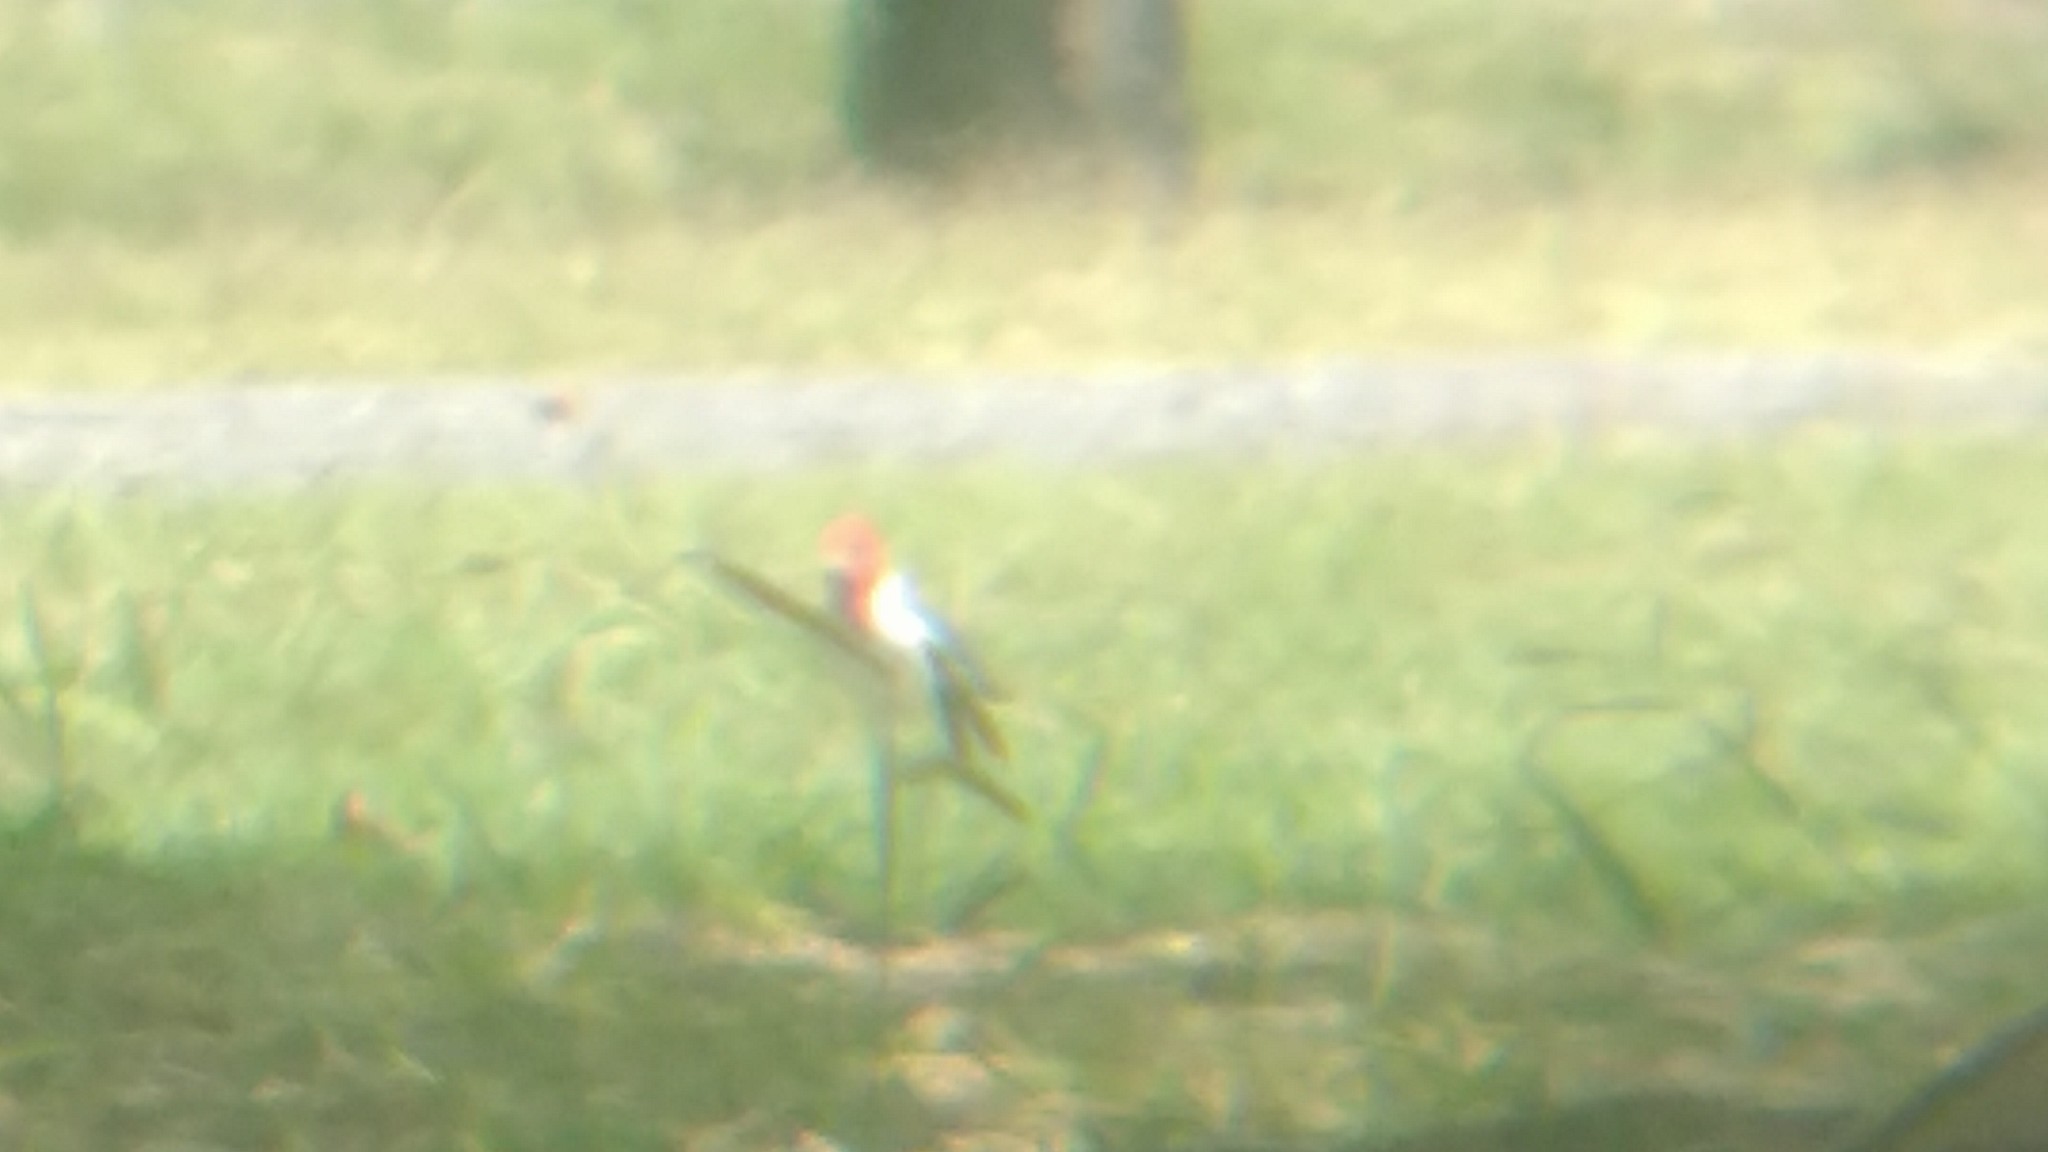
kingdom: Animalia
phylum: Chordata
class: Aves
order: Passeriformes
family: Thraupidae
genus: Paroaria
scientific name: Paroaria coronata
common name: Red-crested cardinal
